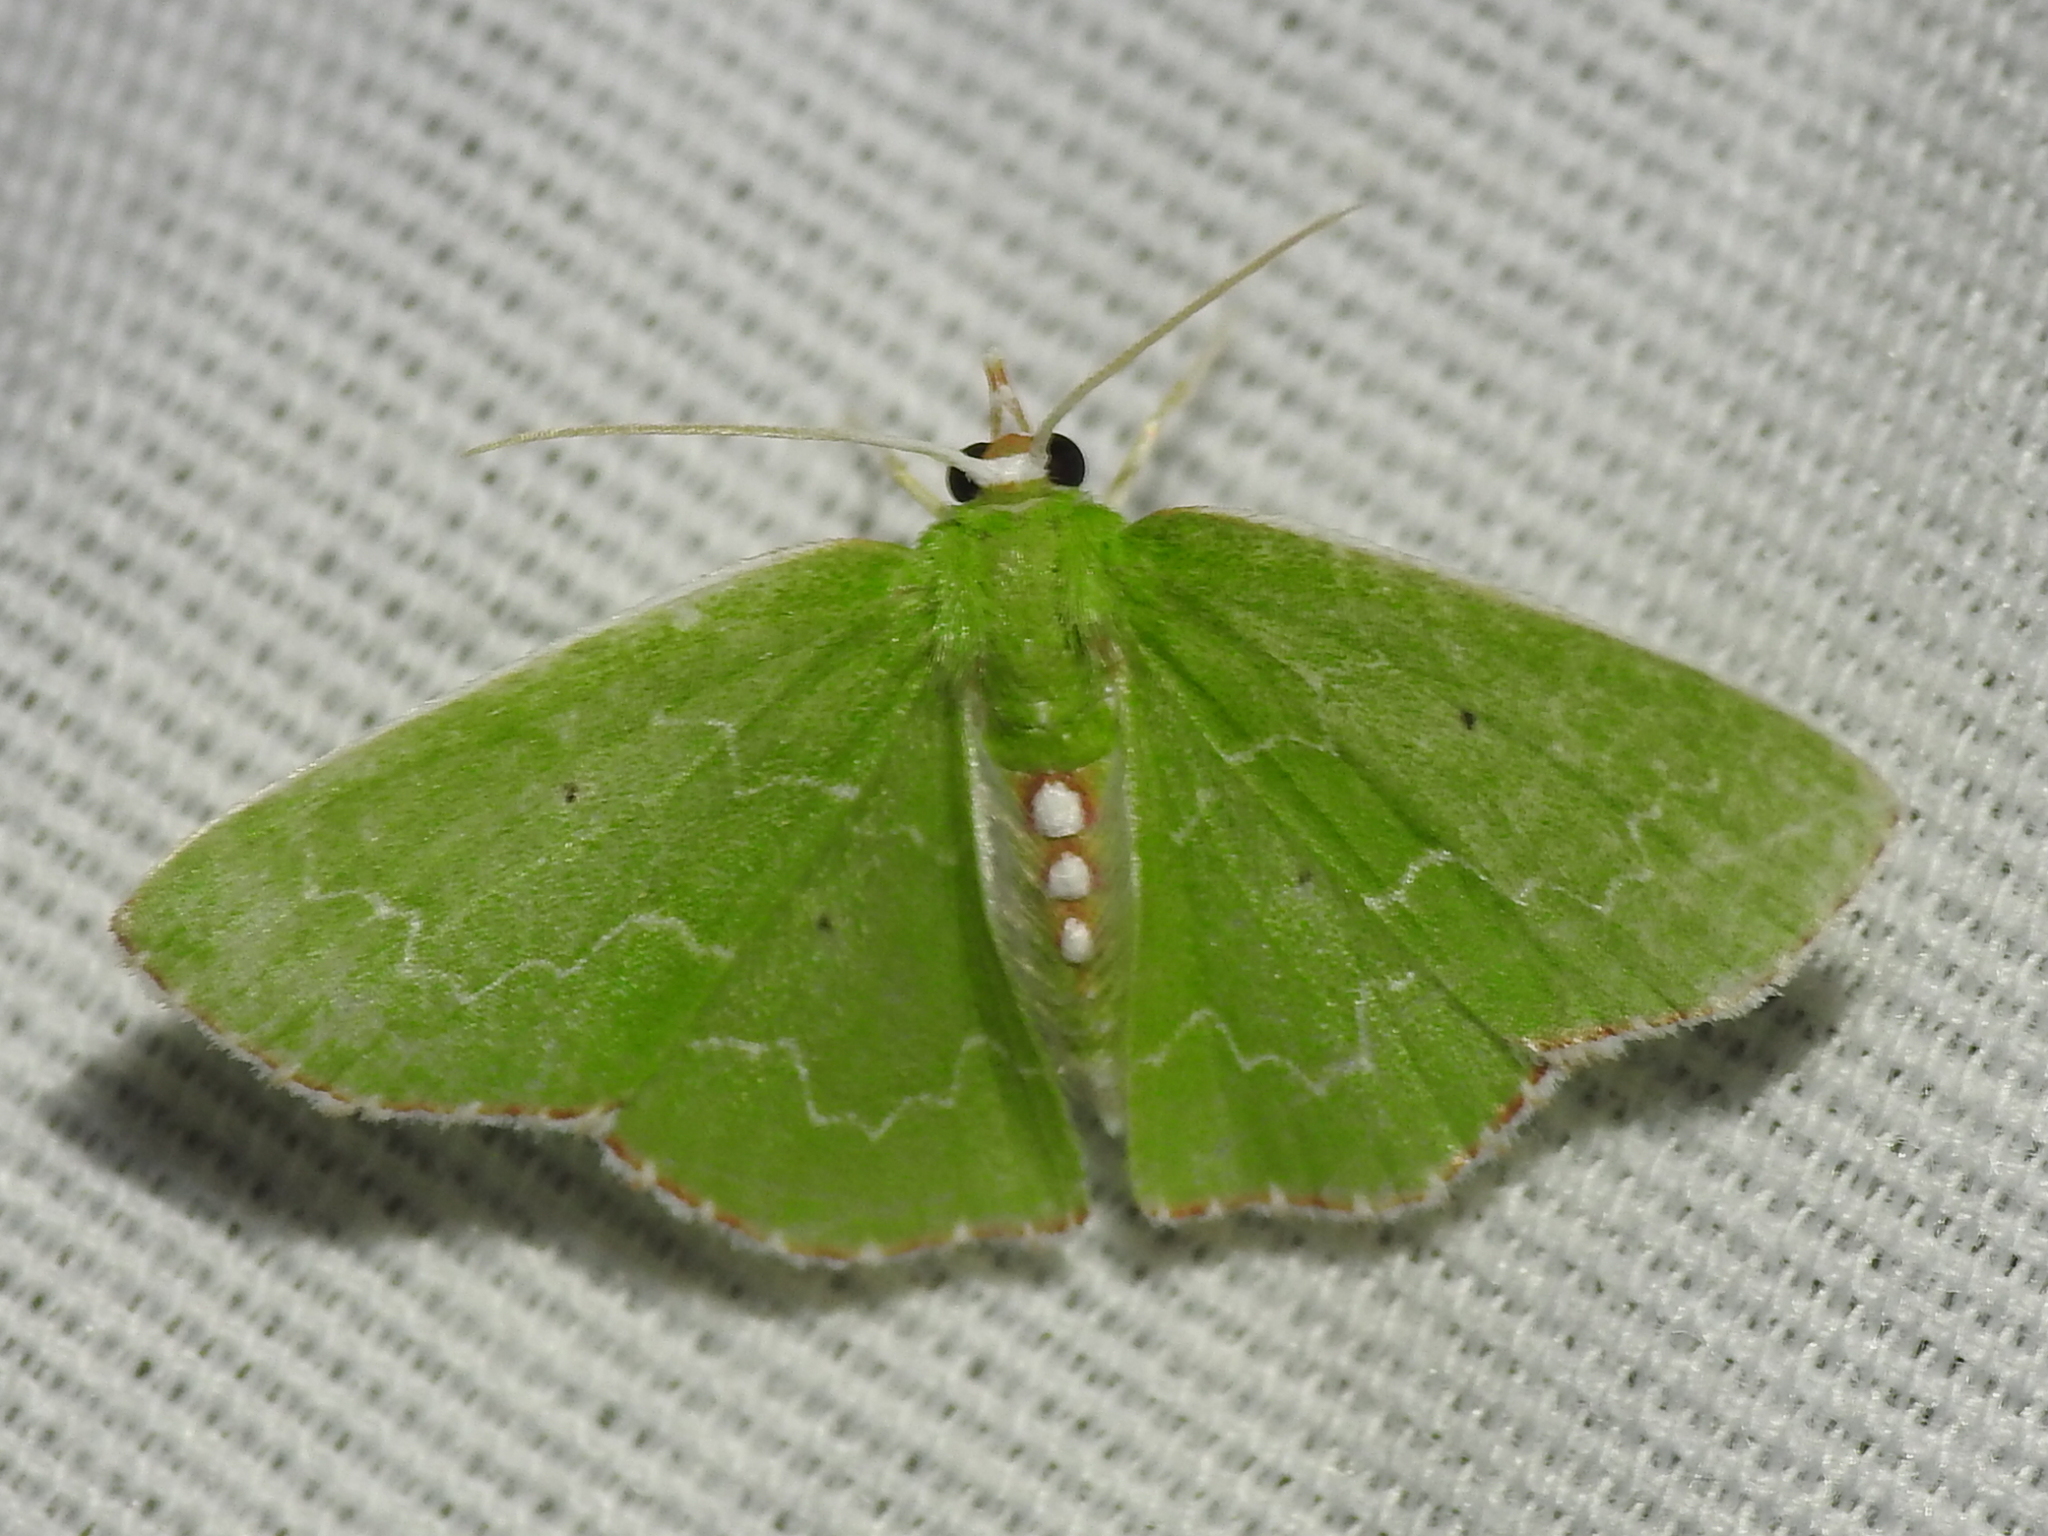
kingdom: Animalia
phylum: Arthropoda
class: Insecta
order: Lepidoptera
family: Geometridae
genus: Synchlora
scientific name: Synchlora frondaria
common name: Southern emerald
